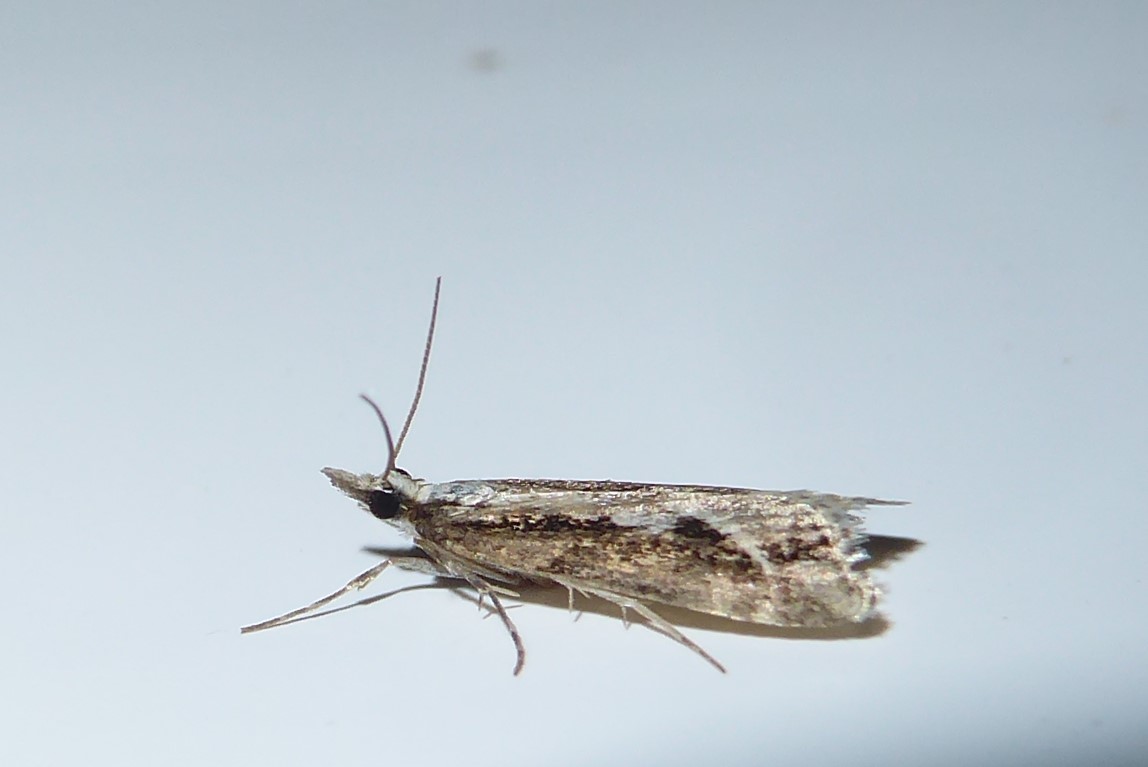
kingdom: Animalia
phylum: Arthropoda
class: Insecta
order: Lepidoptera
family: Crambidae
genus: Eudonia
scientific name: Eudonia steropaea
